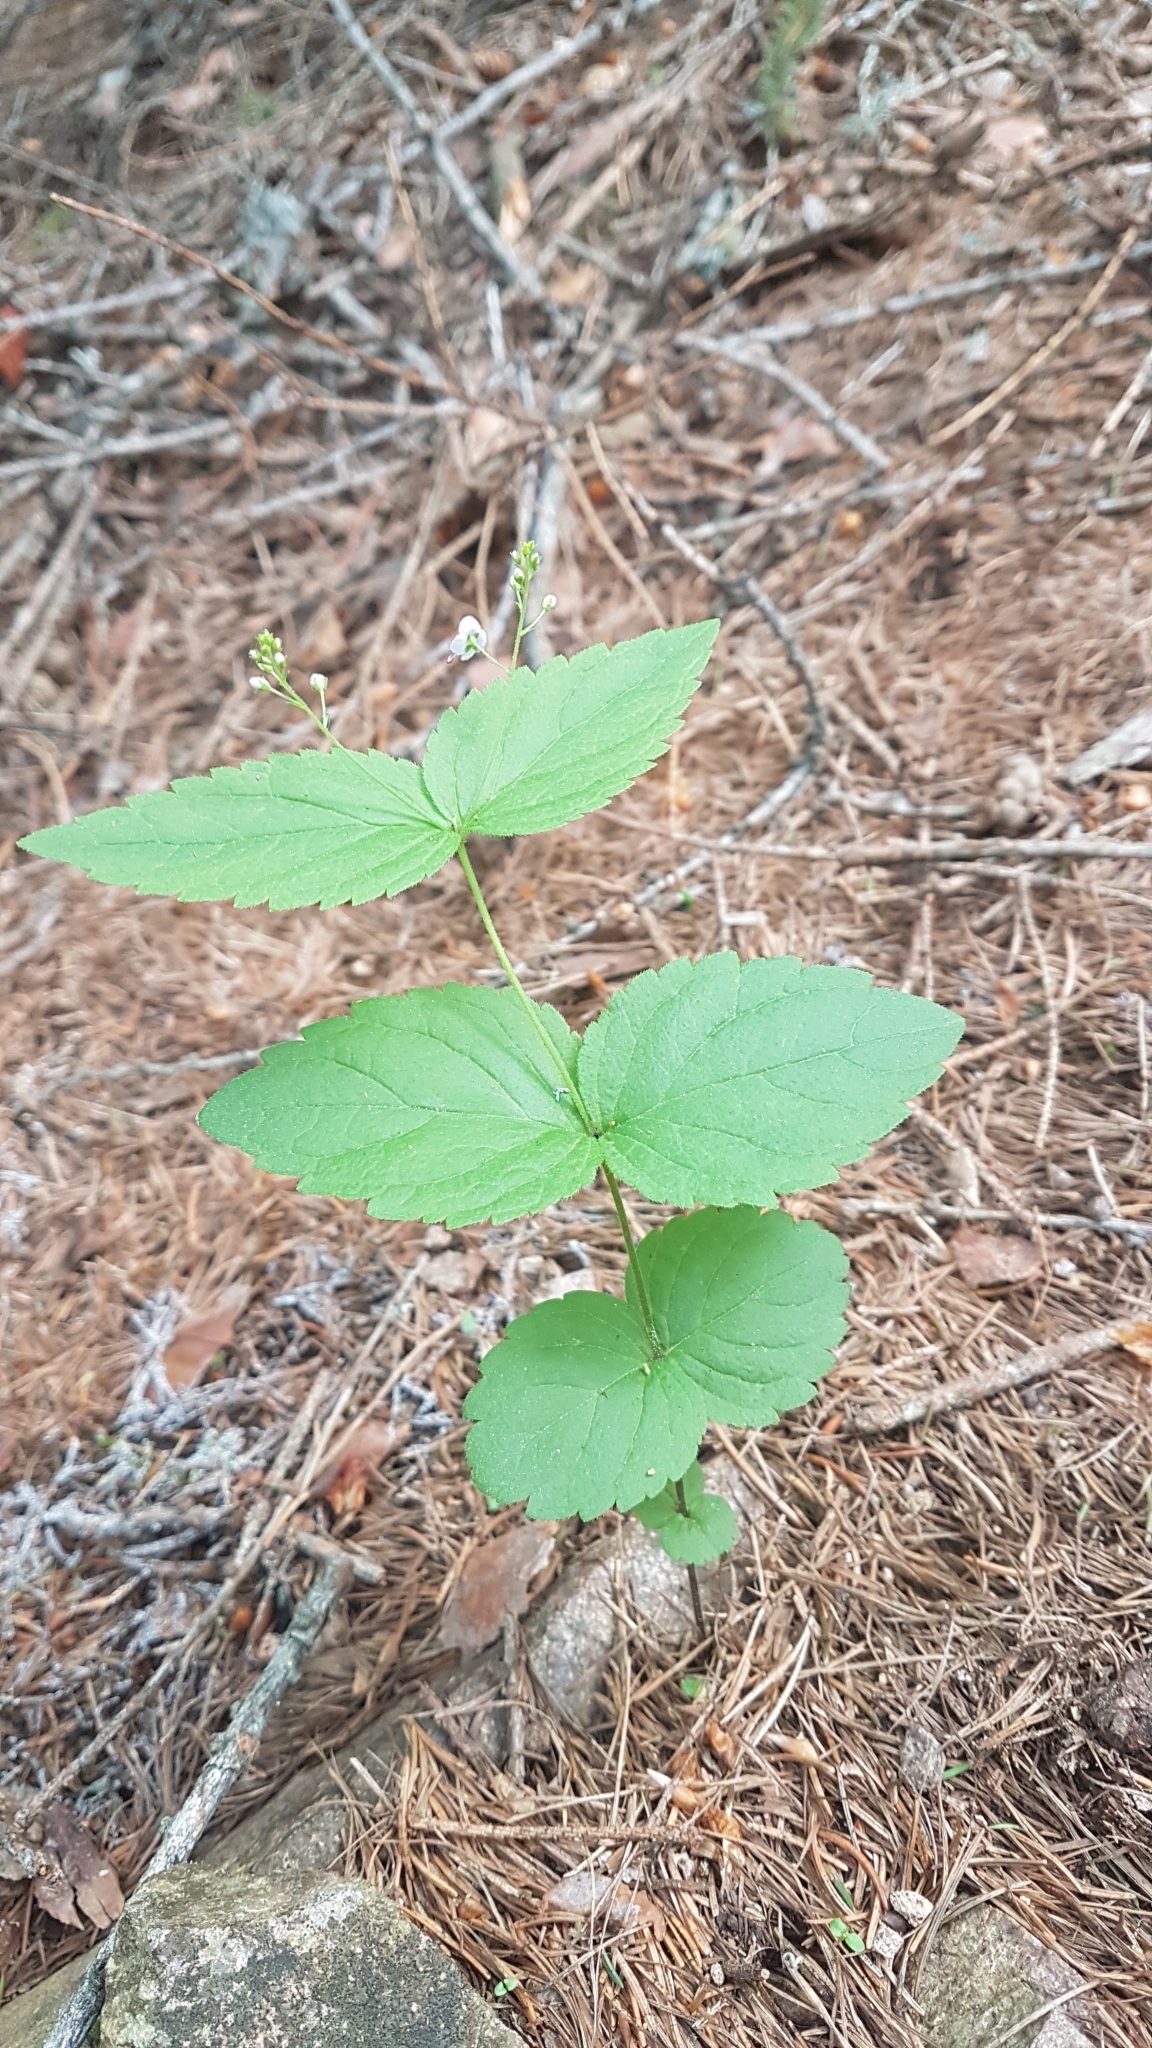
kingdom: Plantae
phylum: Tracheophyta
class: Magnoliopsida
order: Lamiales
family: Plantaginaceae
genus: Veronica
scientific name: Veronica urticifolia
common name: Nettle-leaf speedwell
